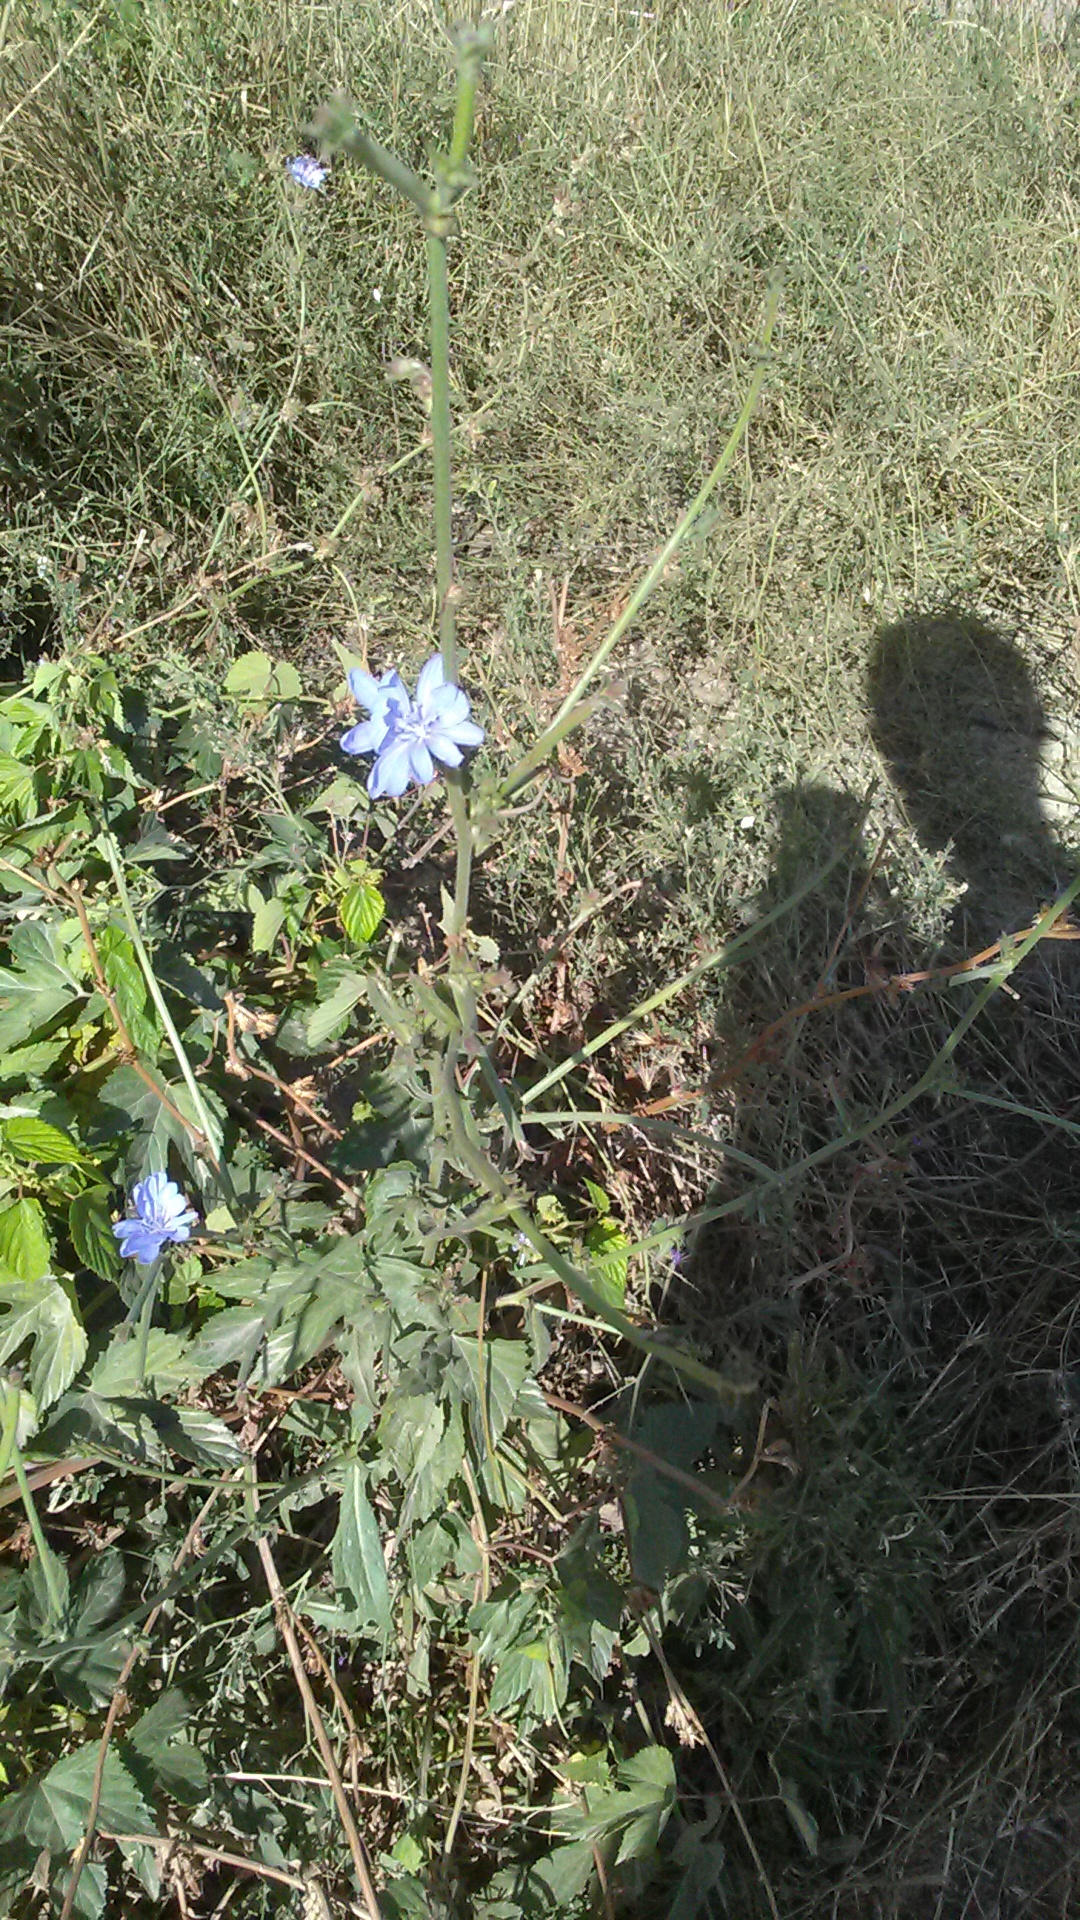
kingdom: Plantae
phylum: Tracheophyta
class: Magnoliopsida
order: Asterales
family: Asteraceae
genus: Cichorium
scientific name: Cichorium intybus
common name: Chicory
